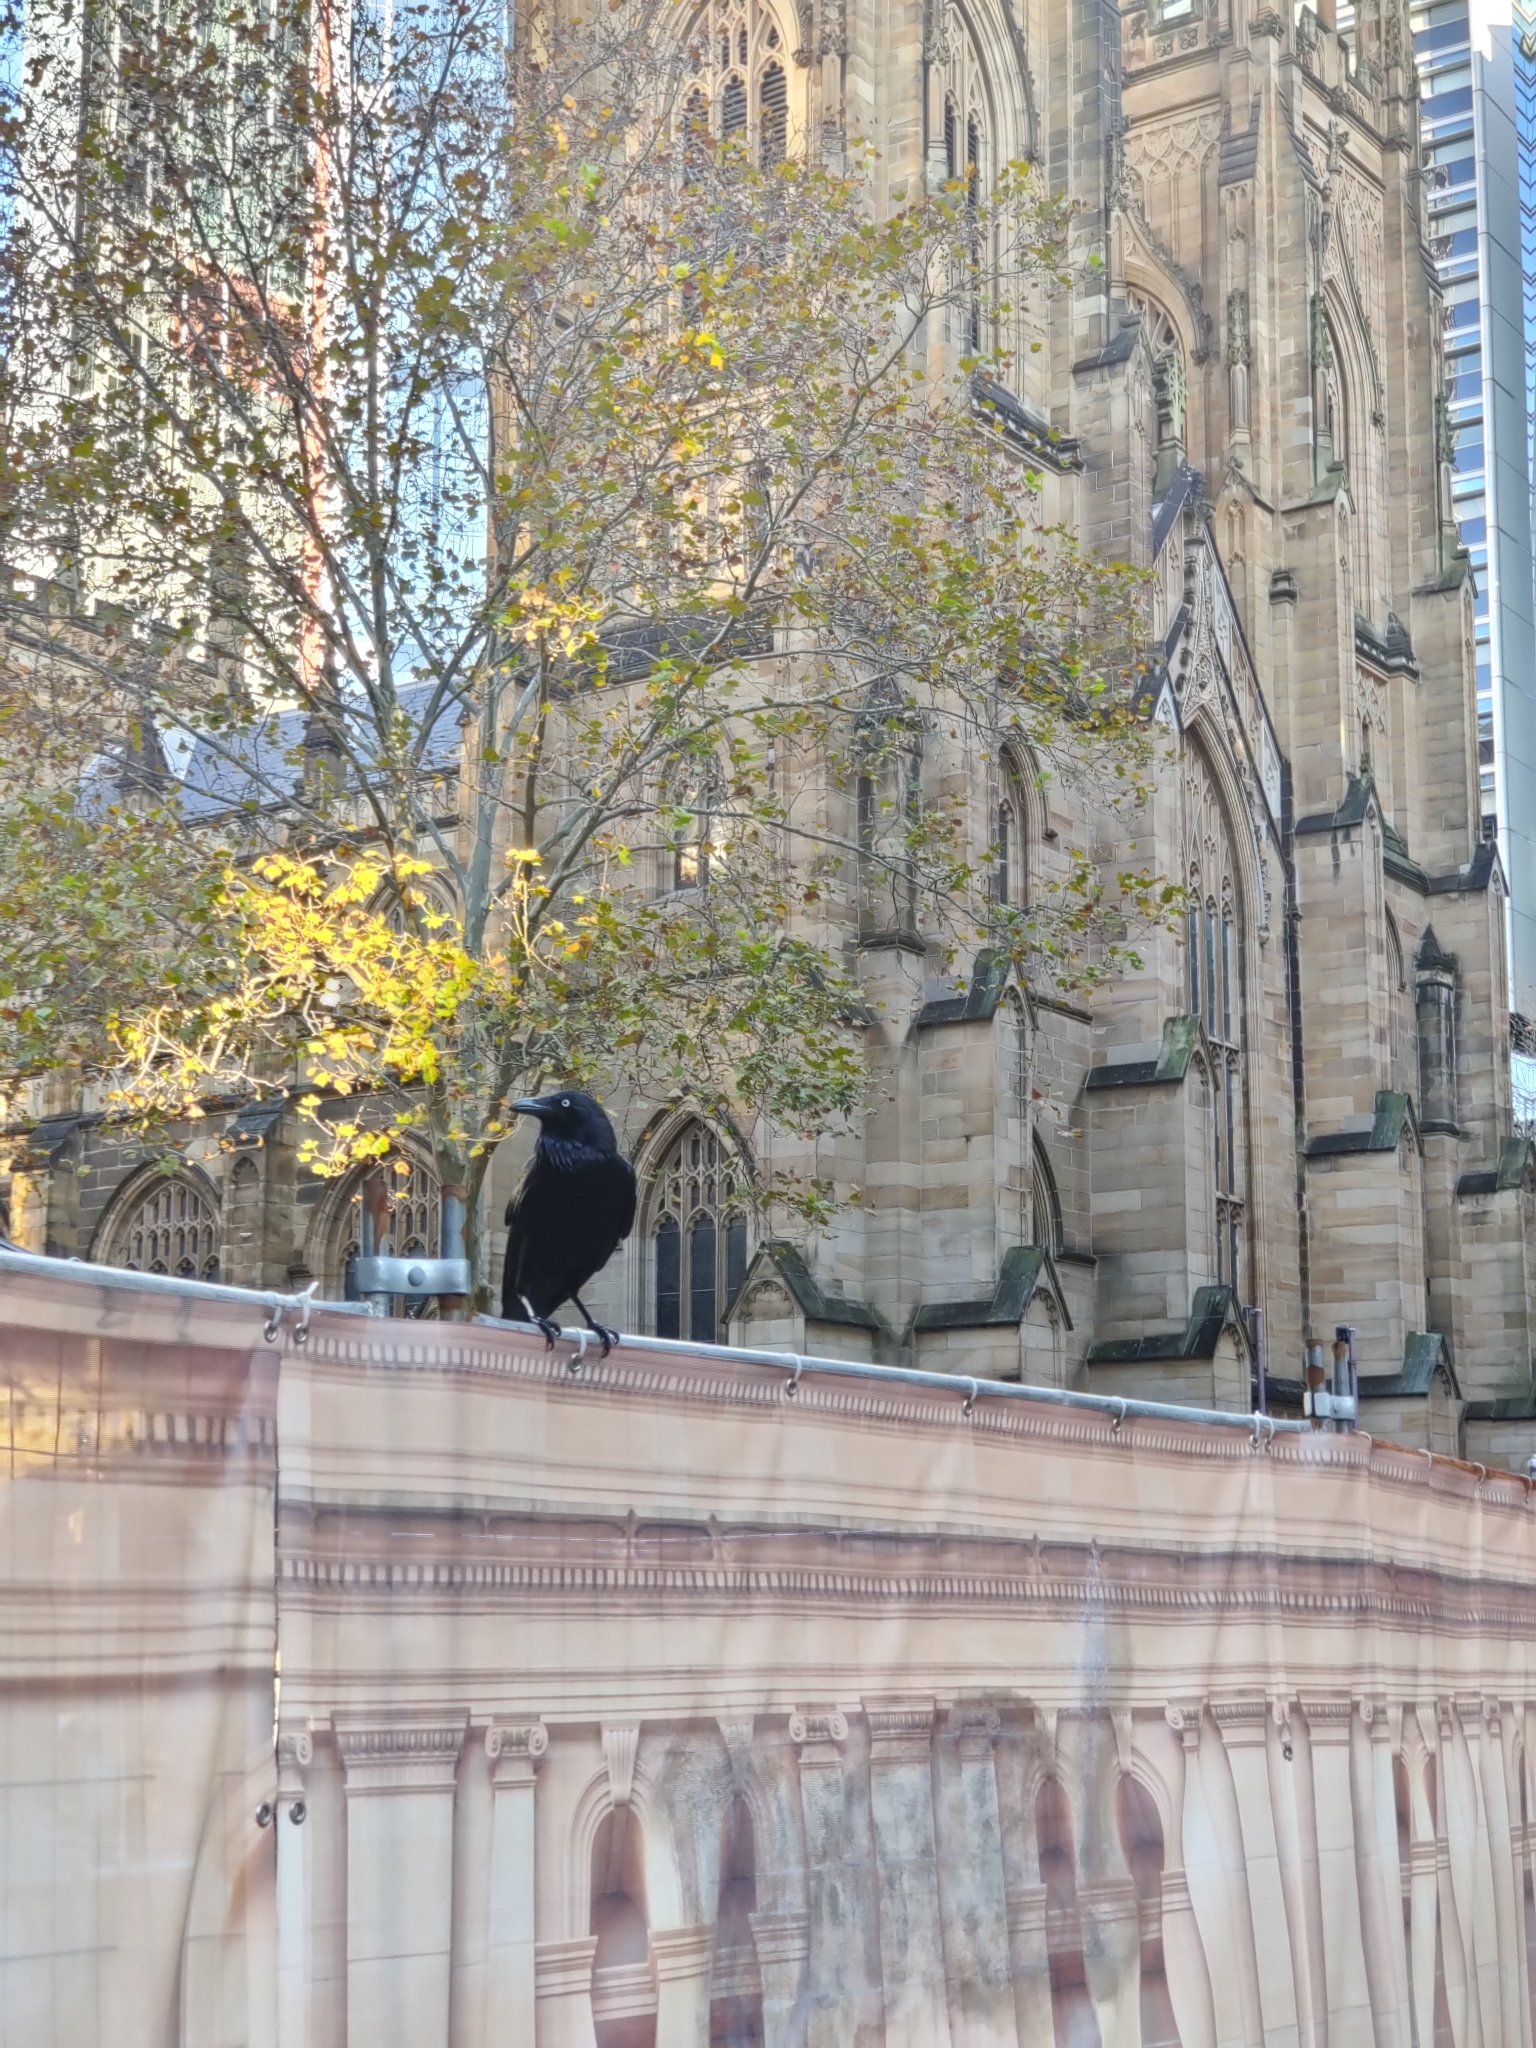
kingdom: Animalia
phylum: Chordata
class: Aves
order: Passeriformes
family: Corvidae
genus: Corvus
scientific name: Corvus coronoides
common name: Australian raven
